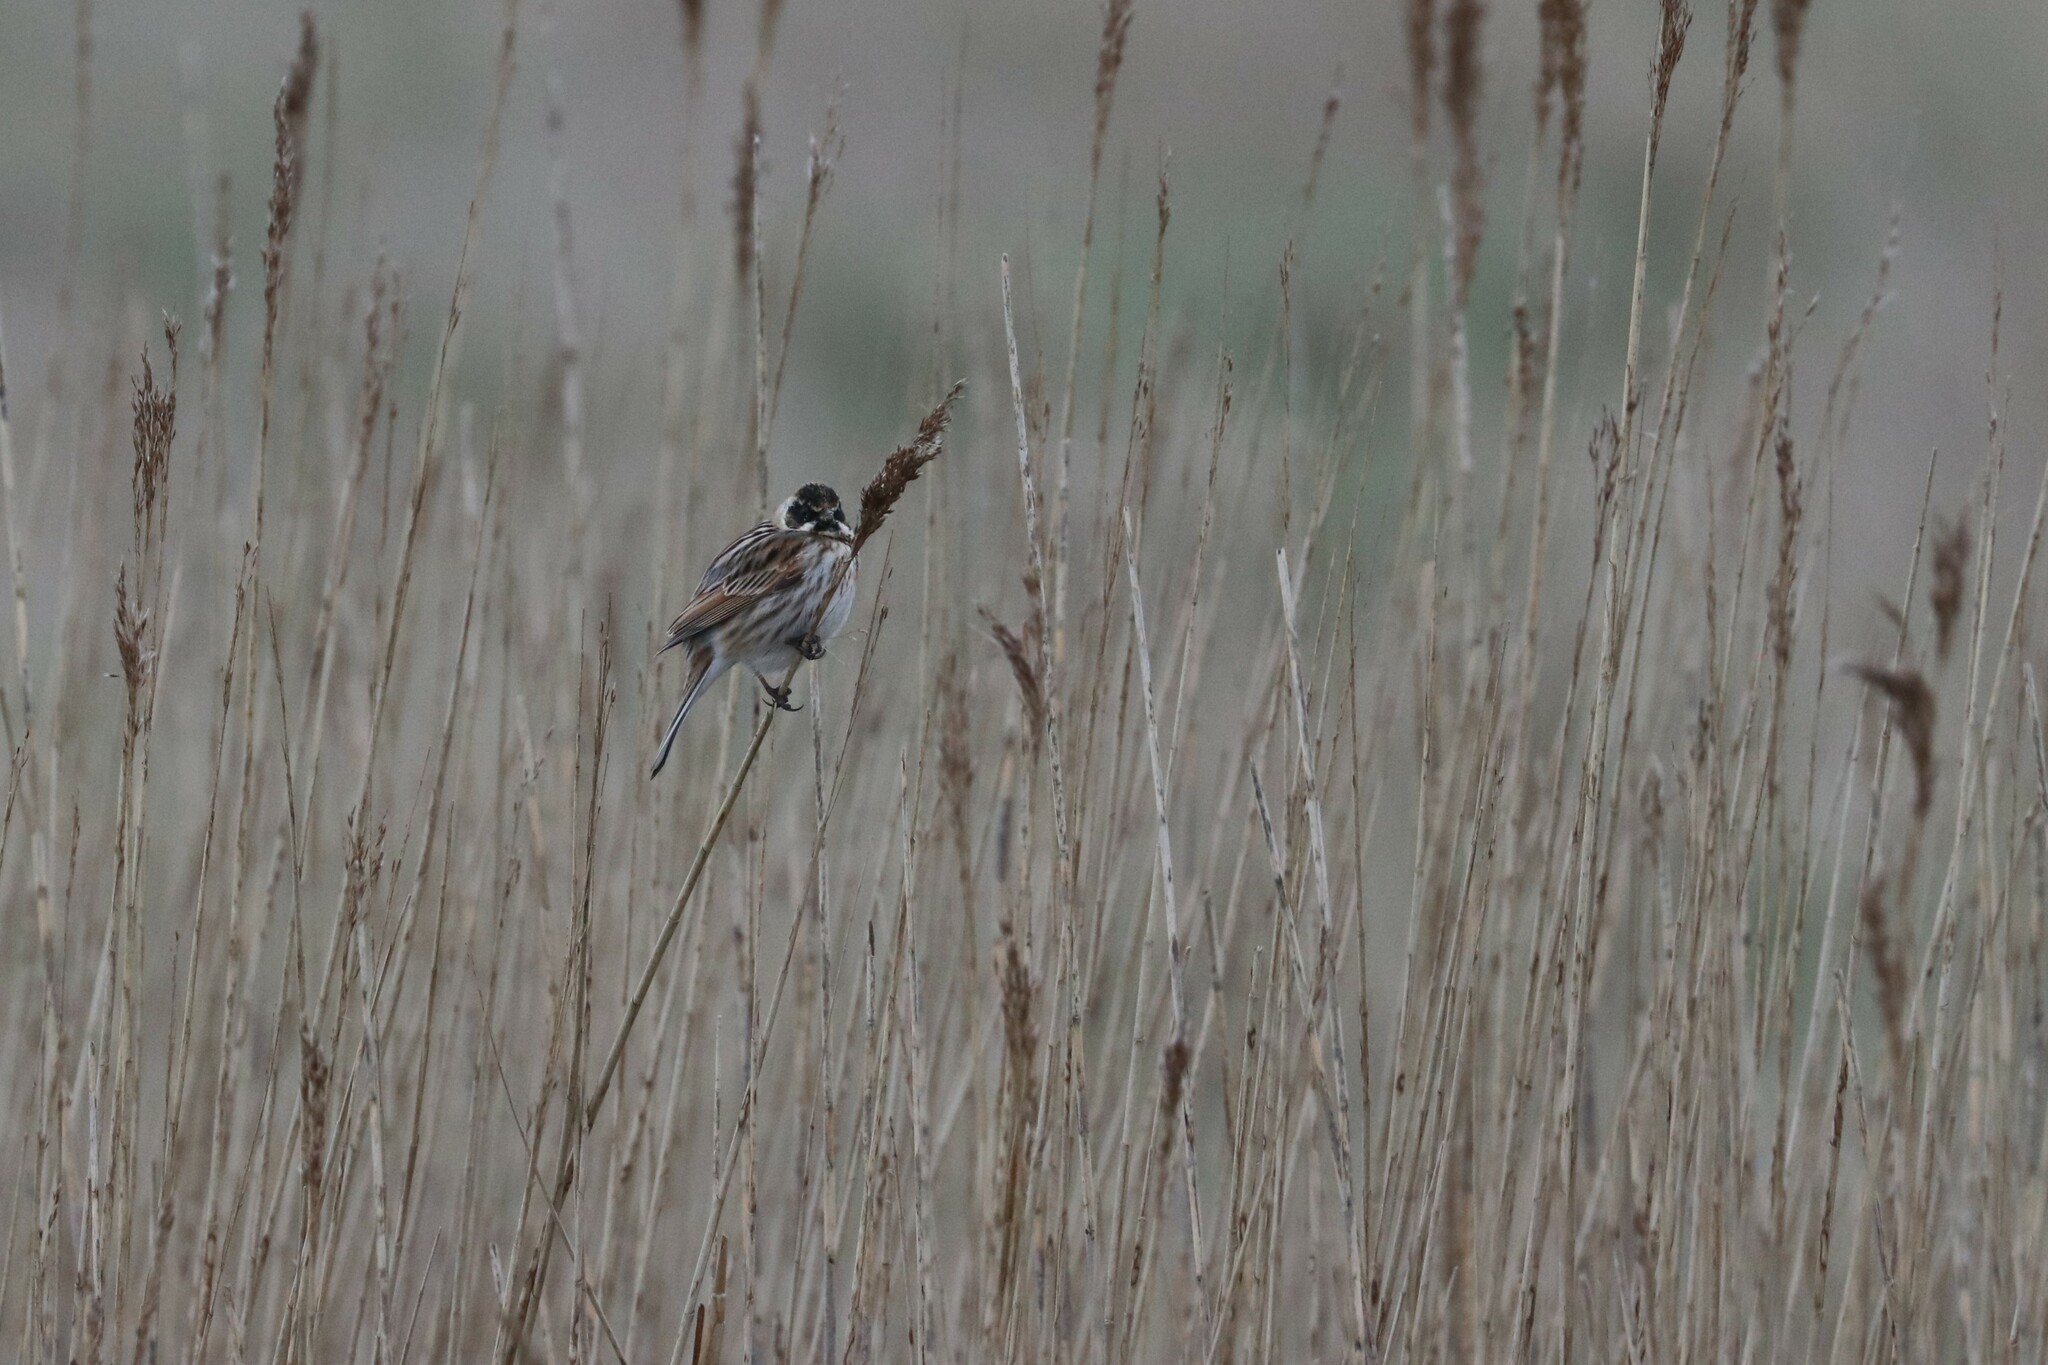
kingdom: Animalia
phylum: Chordata
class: Aves
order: Passeriformes
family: Emberizidae
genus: Emberiza
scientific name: Emberiza schoeniclus
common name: Reed bunting
